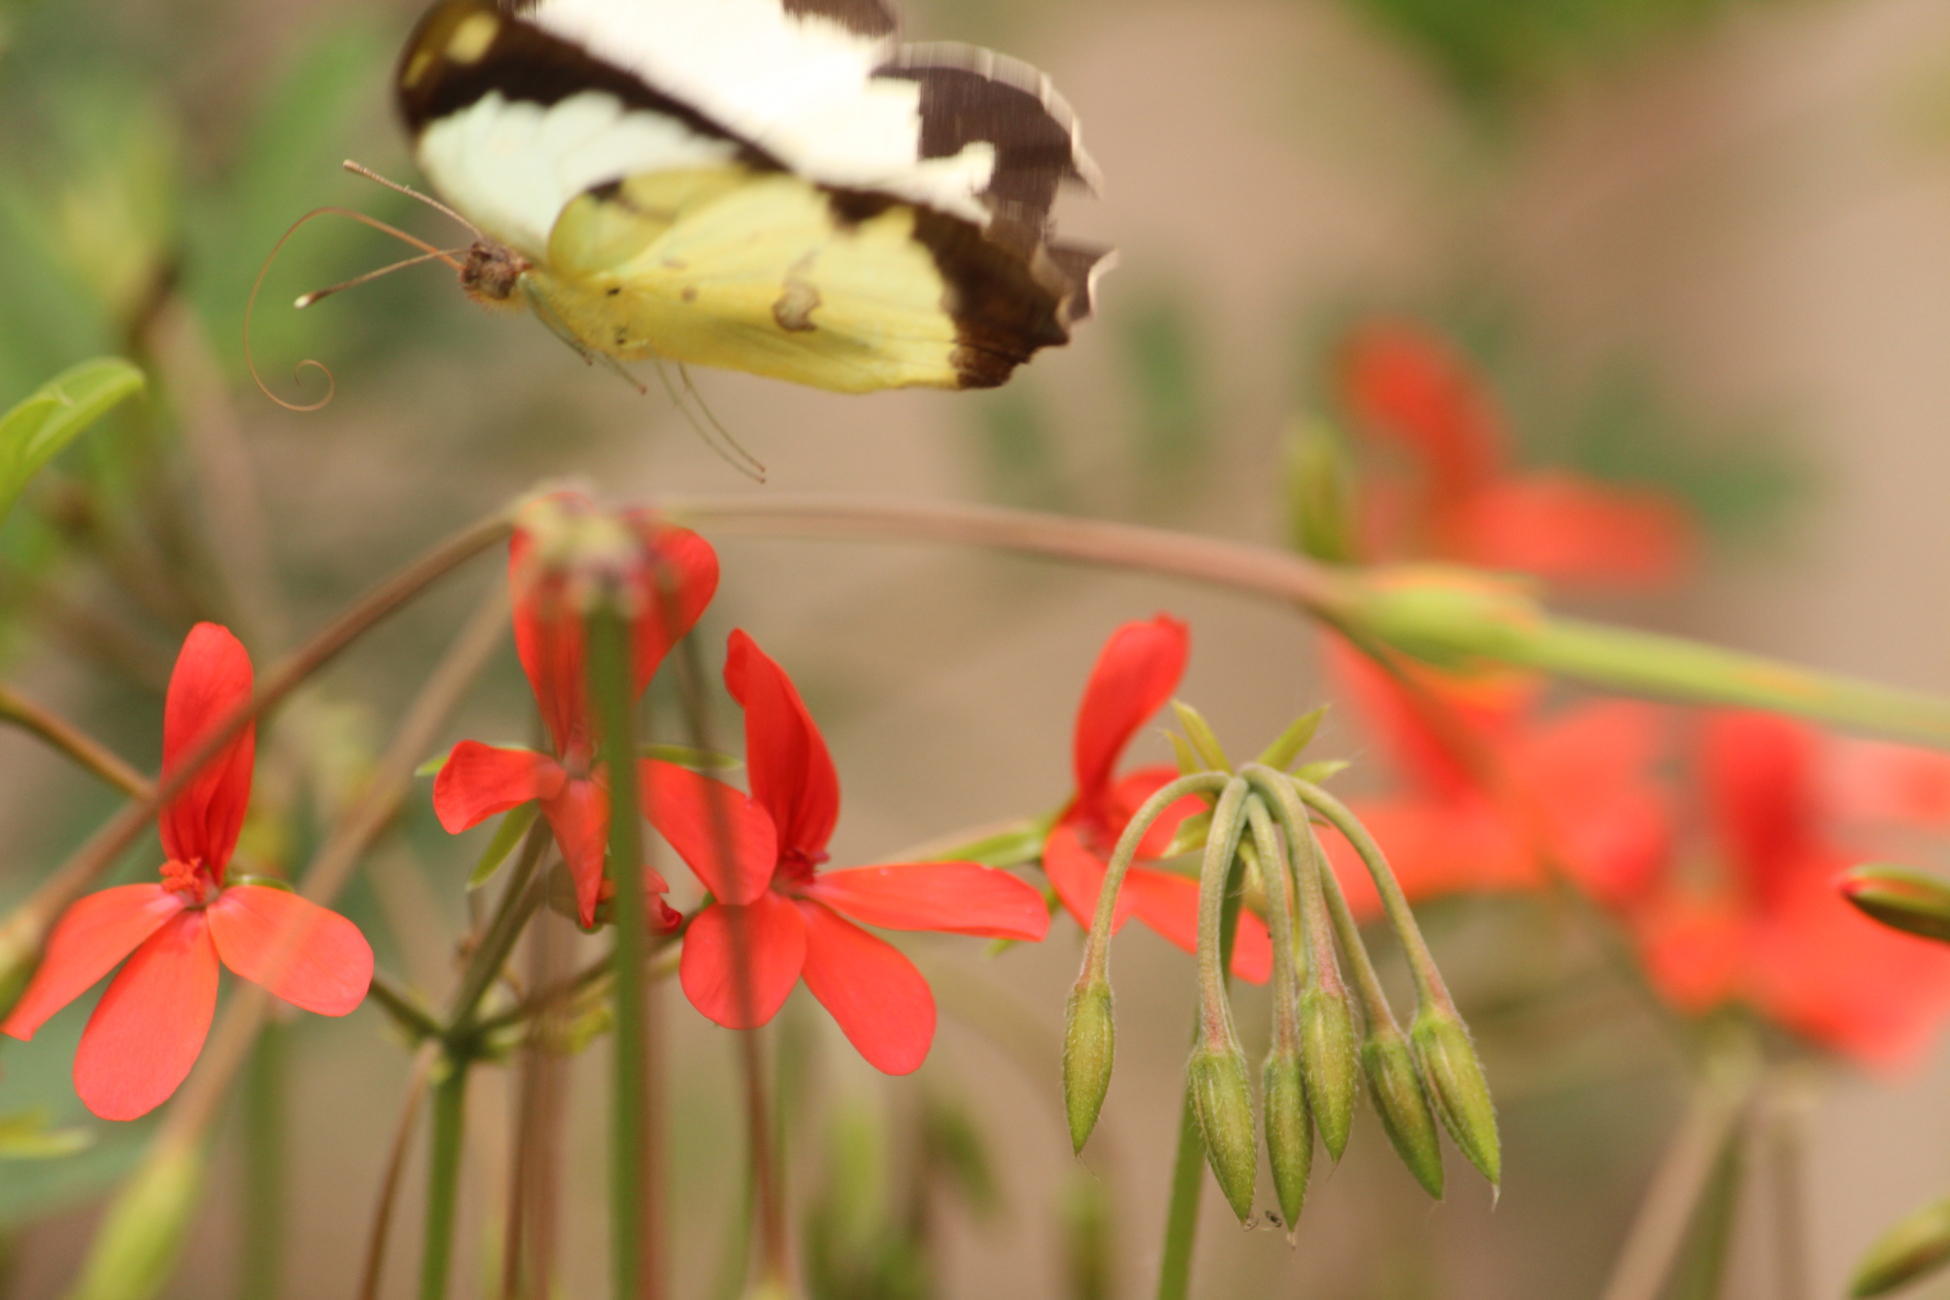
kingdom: Plantae
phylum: Tracheophyta
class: Magnoliopsida
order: Geraniales
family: Geraniaceae
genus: Pelargonium
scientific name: Pelargonium tongaense
